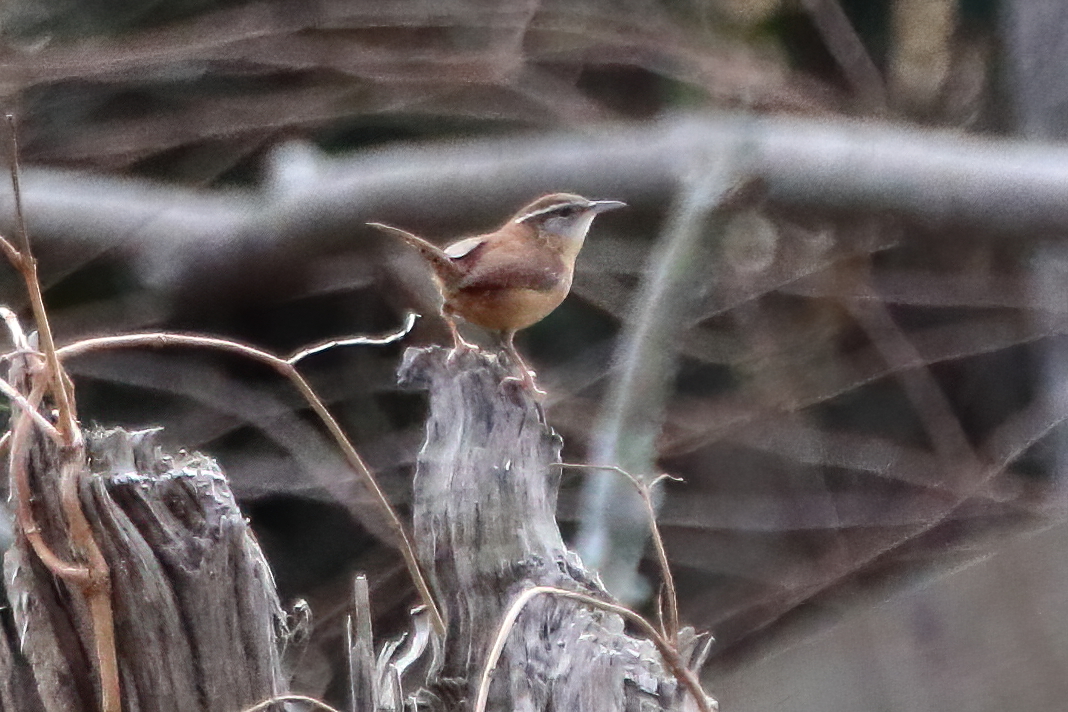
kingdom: Animalia
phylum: Chordata
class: Aves
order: Passeriformes
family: Troglodytidae
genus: Thryothorus
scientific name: Thryothorus ludovicianus
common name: Carolina wren
